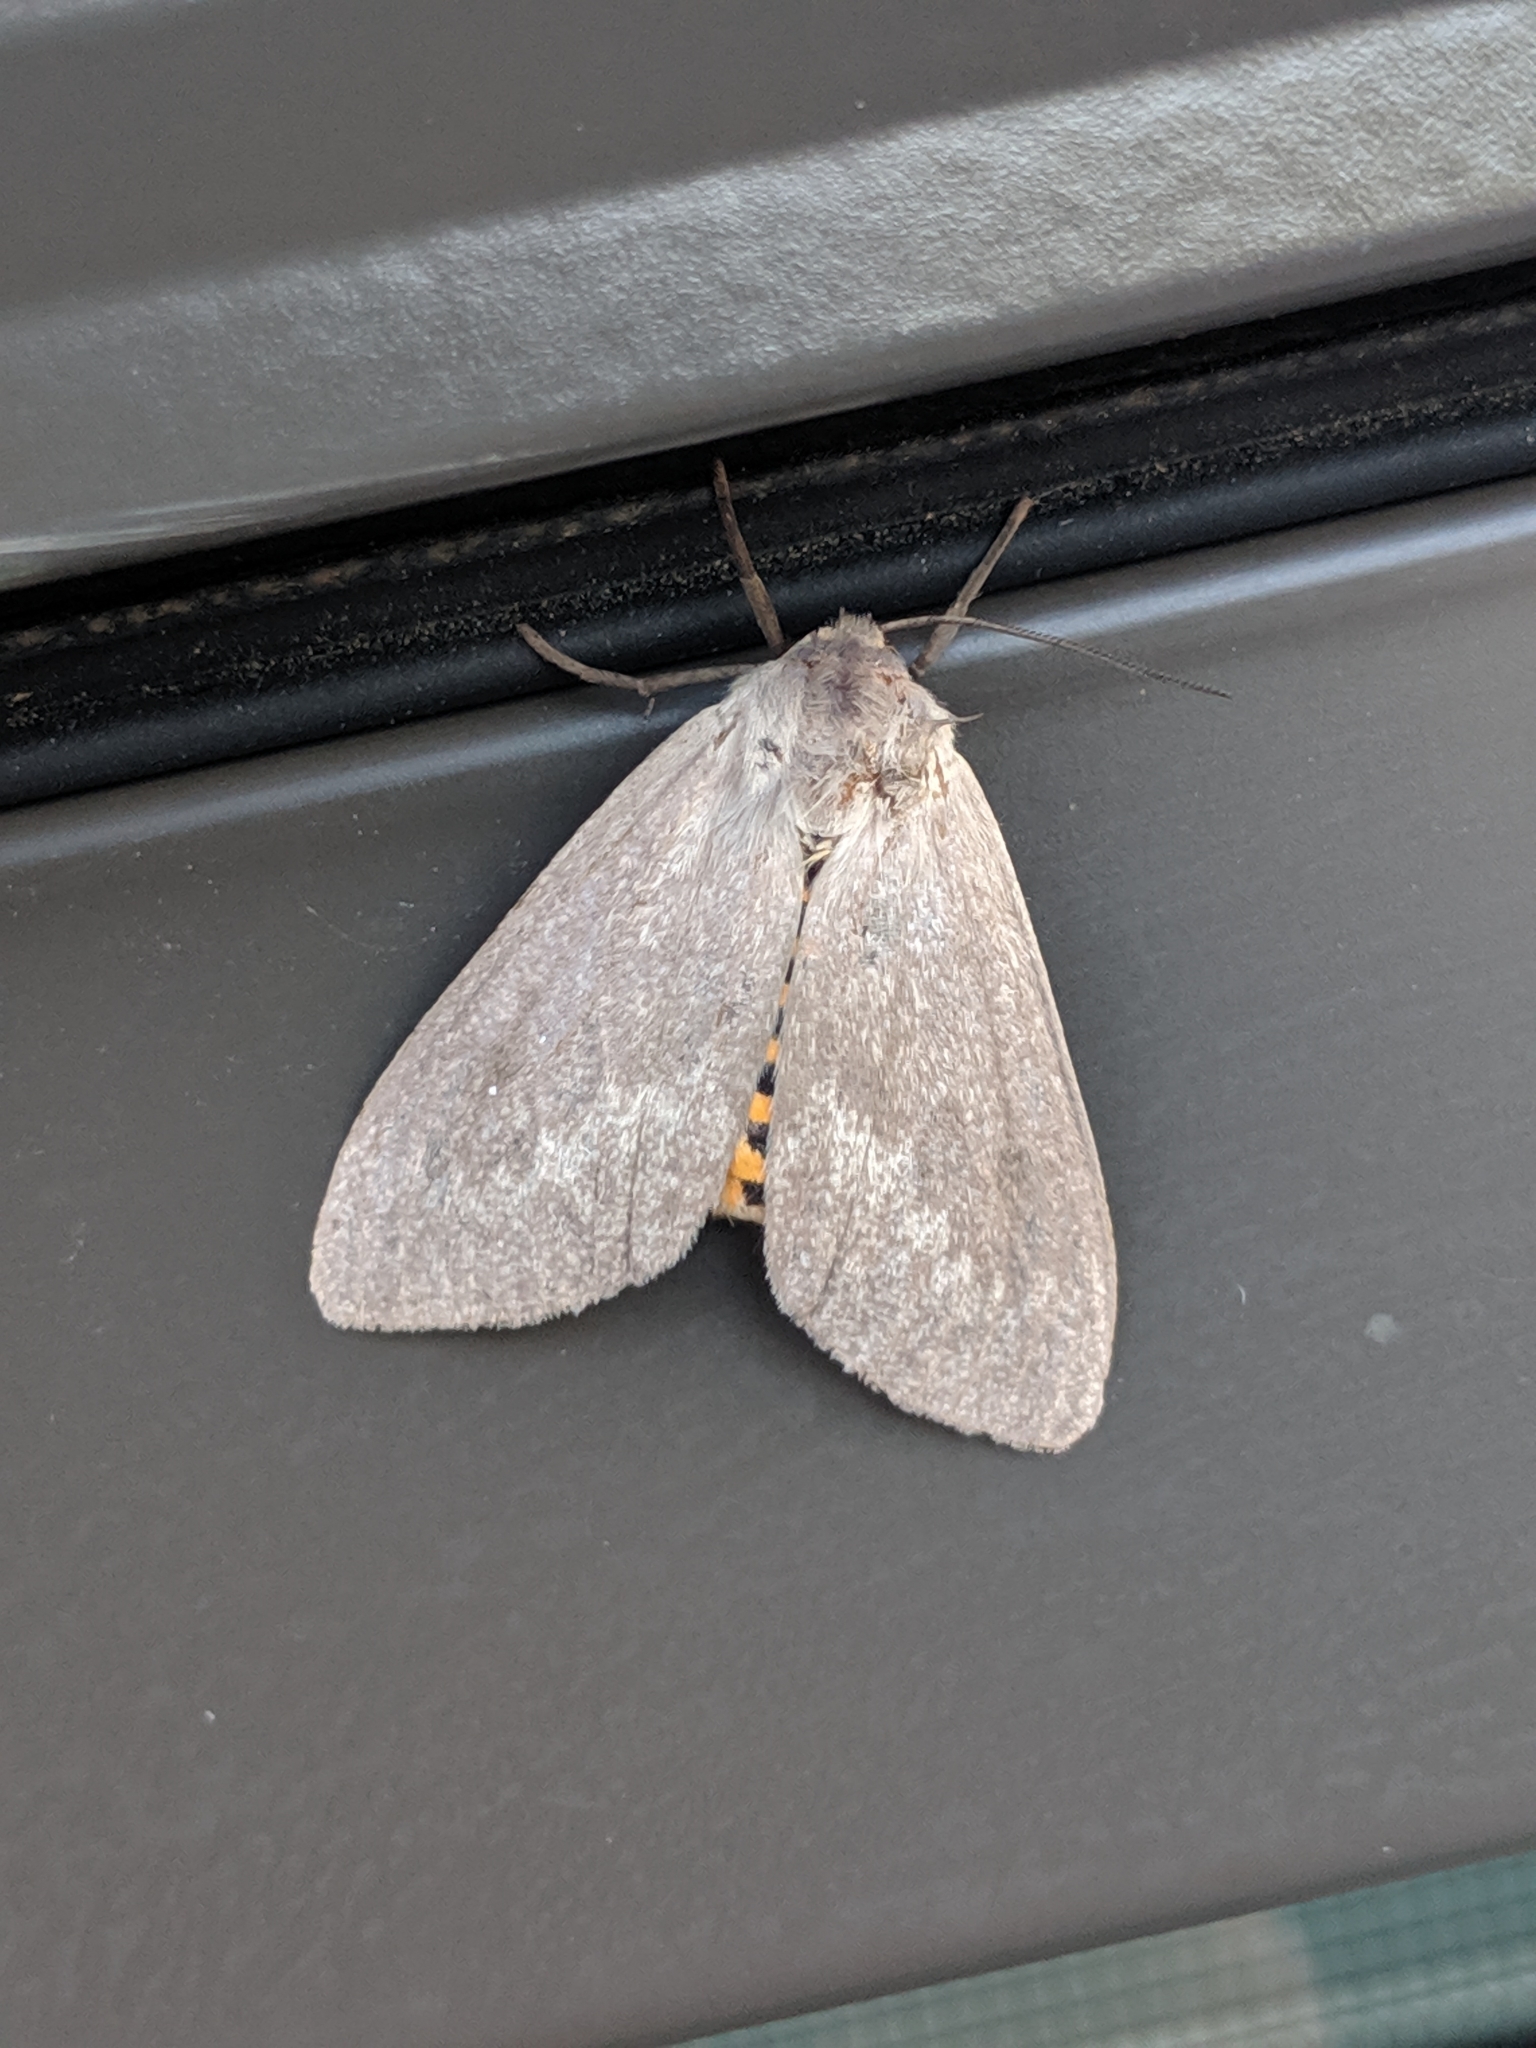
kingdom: Animalia
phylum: Arthropoda
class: Insecta
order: Lepidoptera
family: Erebidae
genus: Euchaetes
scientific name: Euchaetes egle
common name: Milkweed tussock moth
